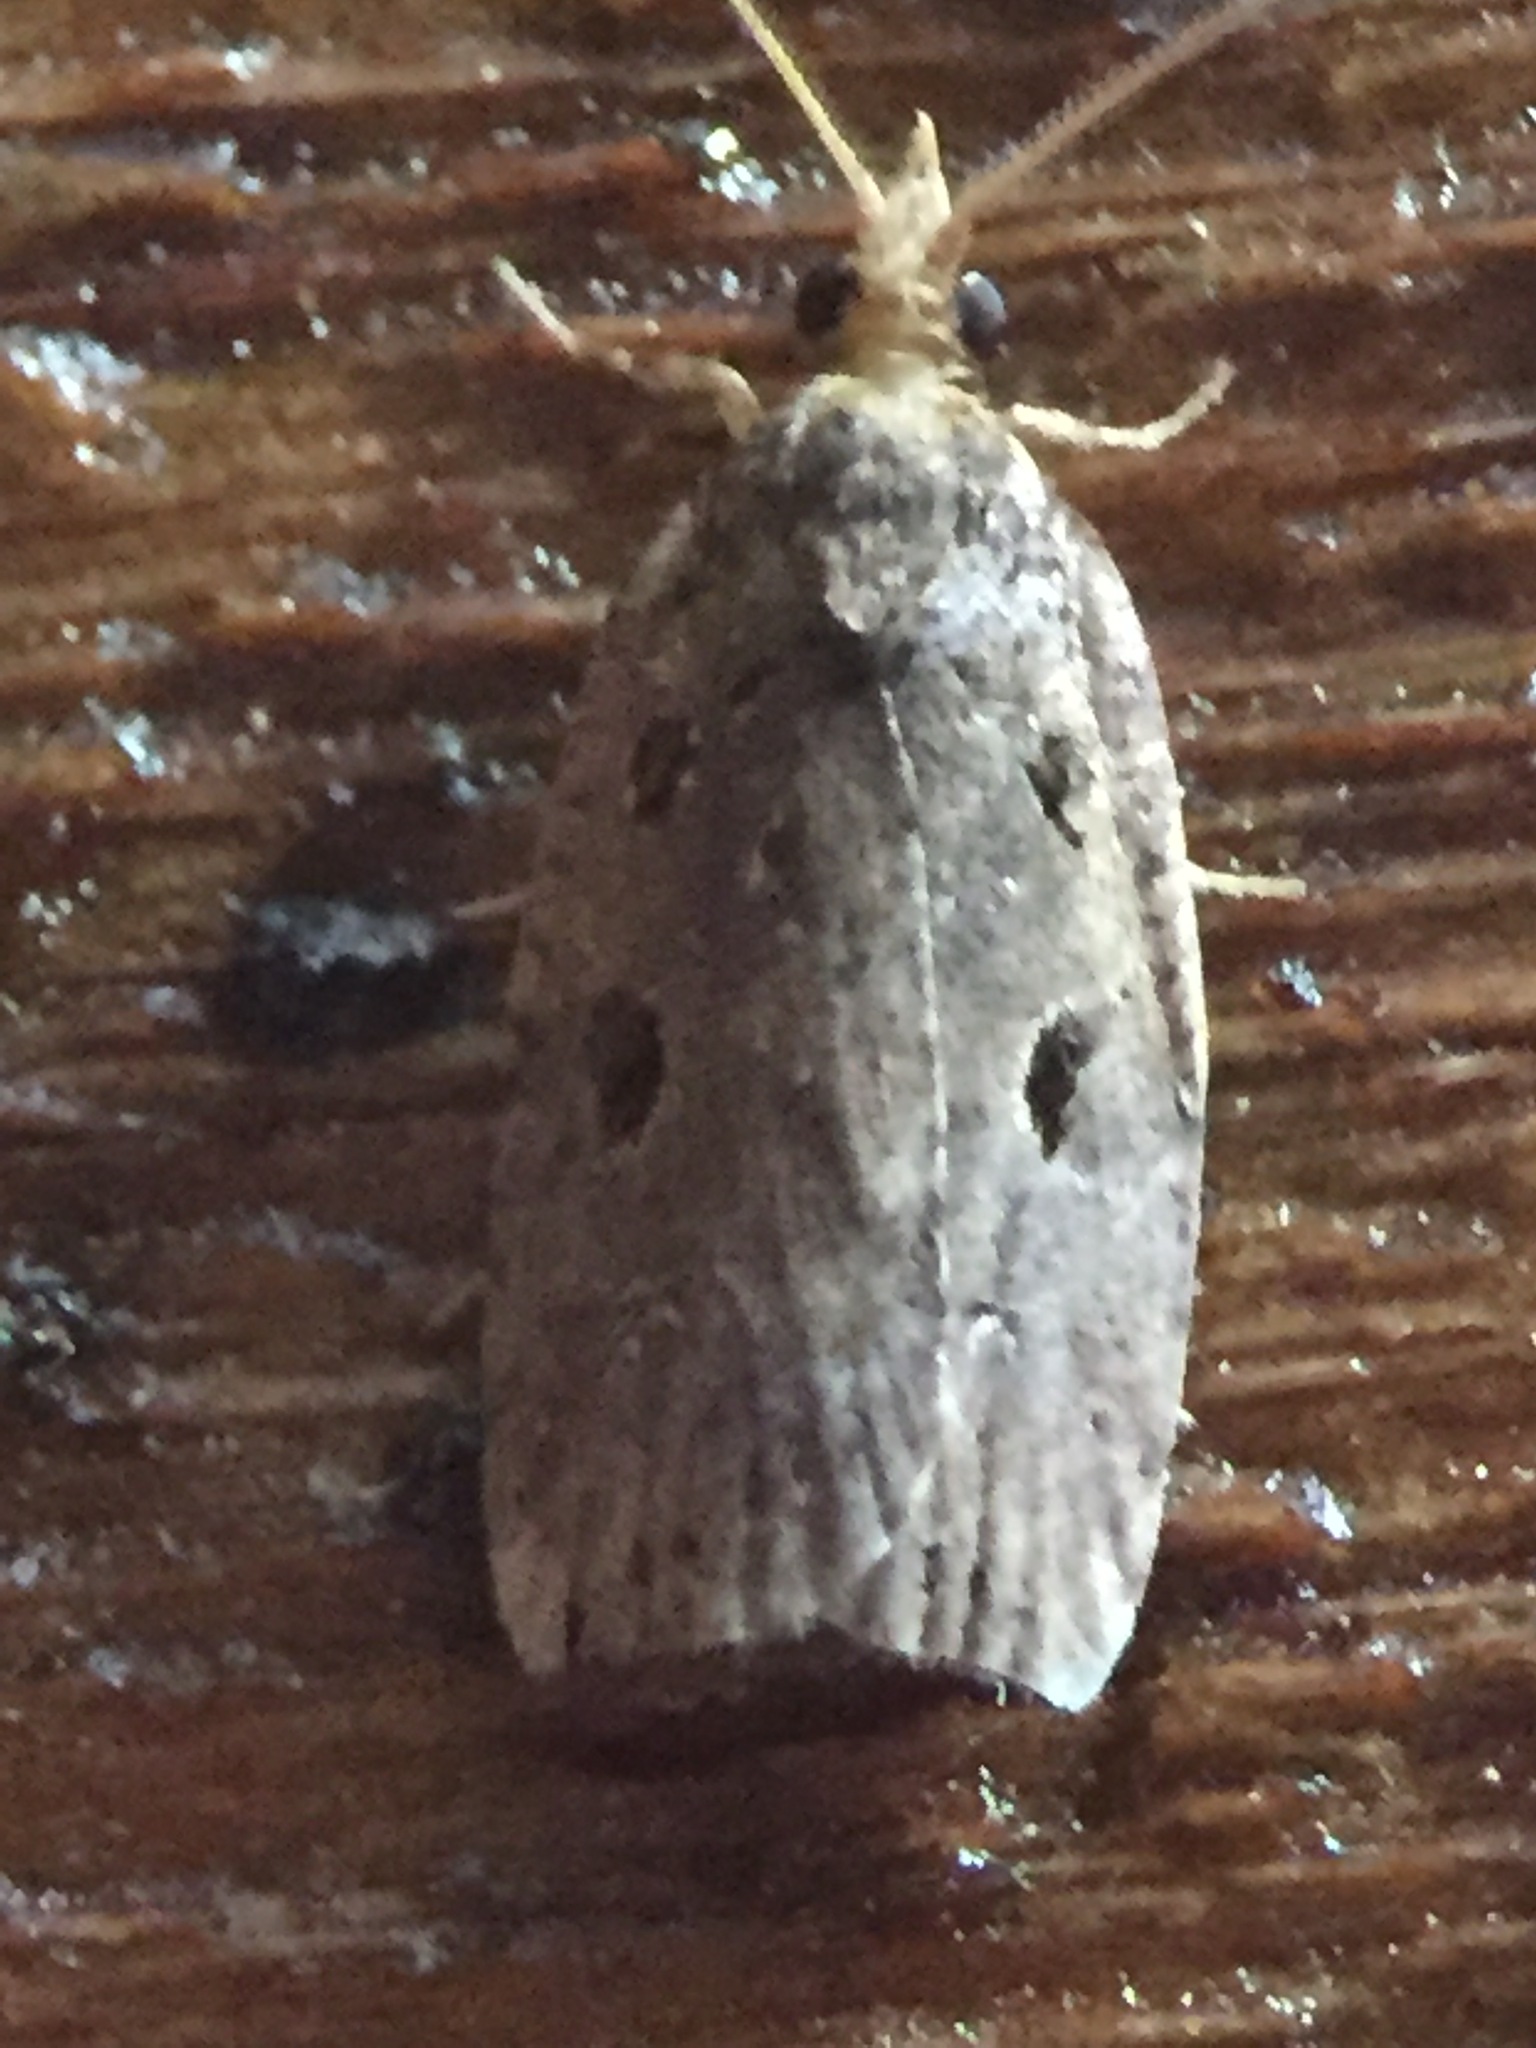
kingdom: Animalia
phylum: Arthropoda
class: Insecta
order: Lepidoptera
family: Tortricidae
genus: Ctenopseustis
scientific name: Ctenopseustis fraterna
